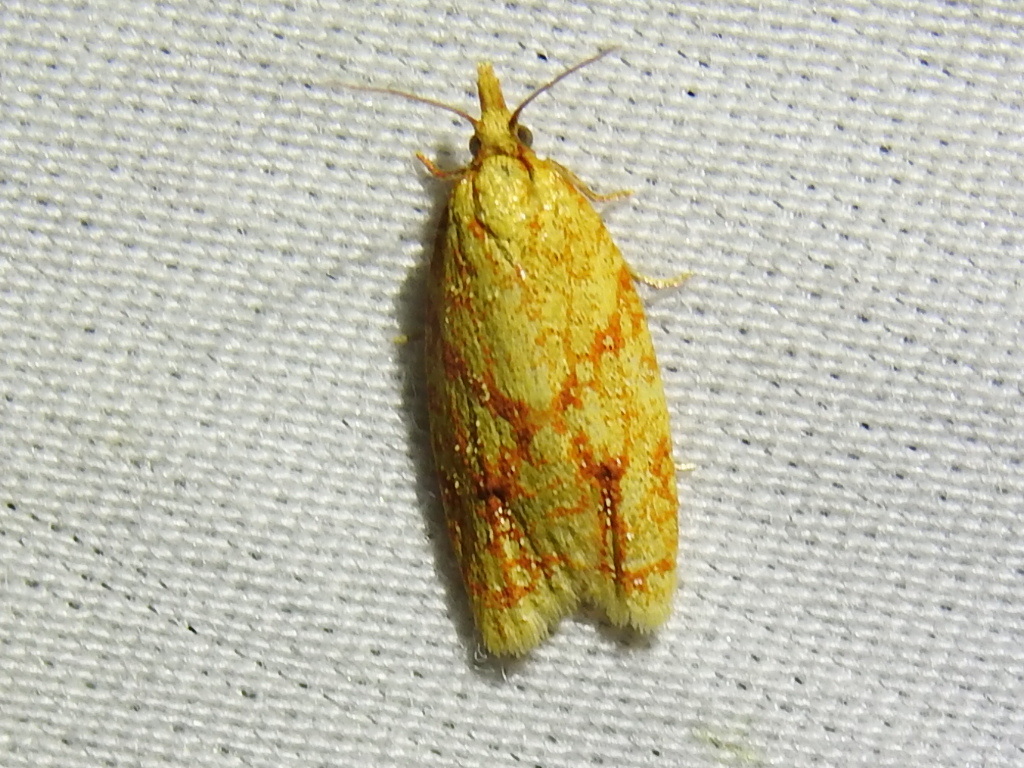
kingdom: Animalia
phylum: Arthropoda
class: Insecta
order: Lepidoptera
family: Tortricidae
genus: Sparganothis
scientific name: Sparganothis sulfureana
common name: Sparganothis fruitworm moth
